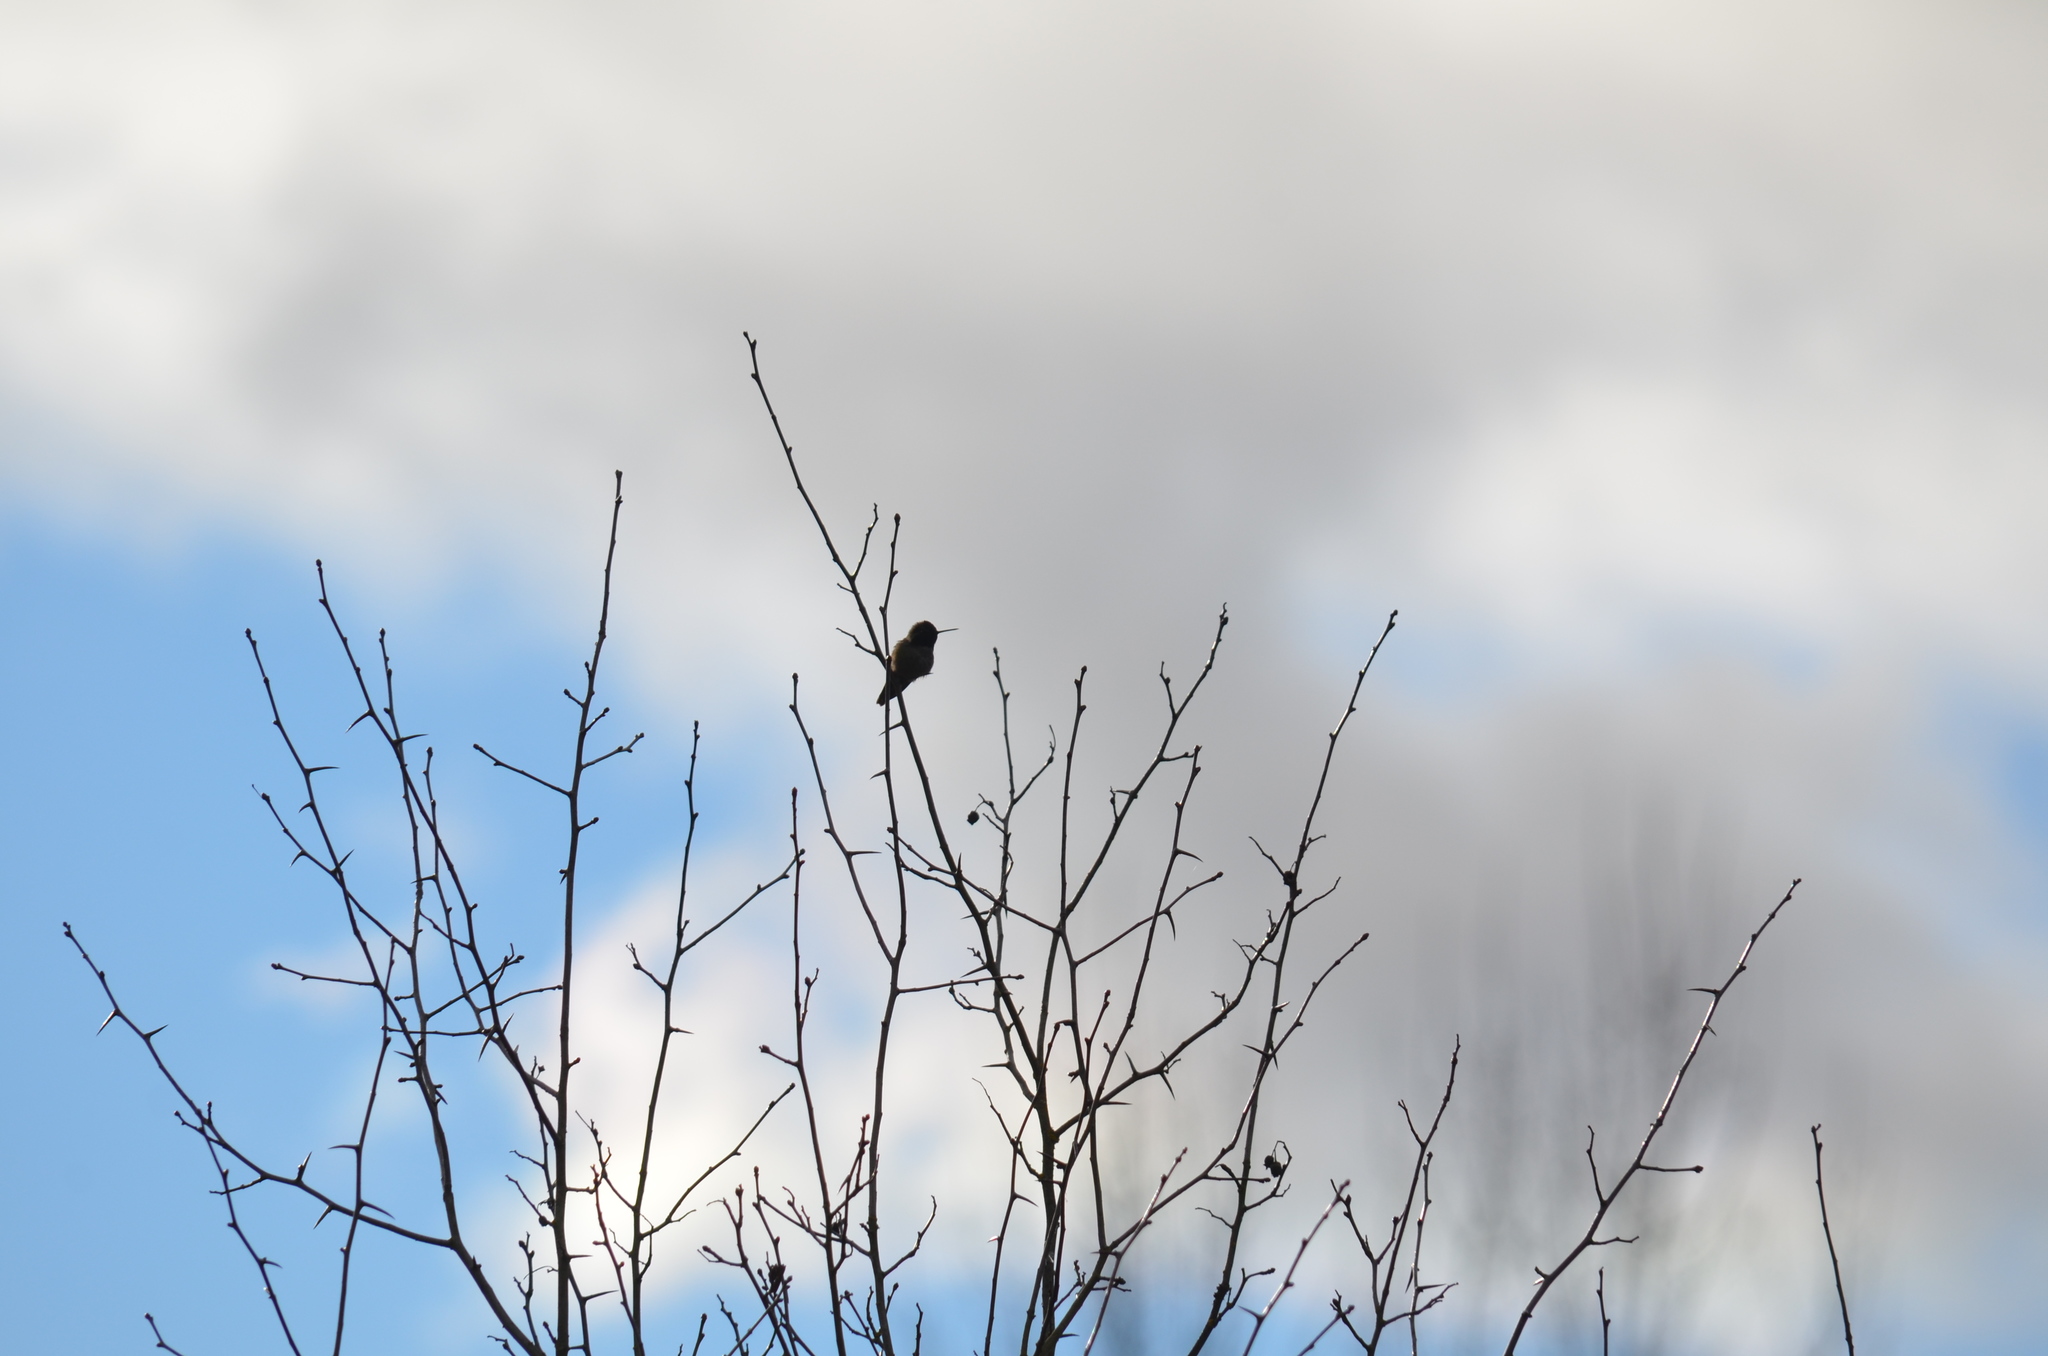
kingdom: Animalia
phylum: Chordata
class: Aves
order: Apodiformes
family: Trochilidae
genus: Calypte
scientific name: Calypte anna
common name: Anna's hummingbird
